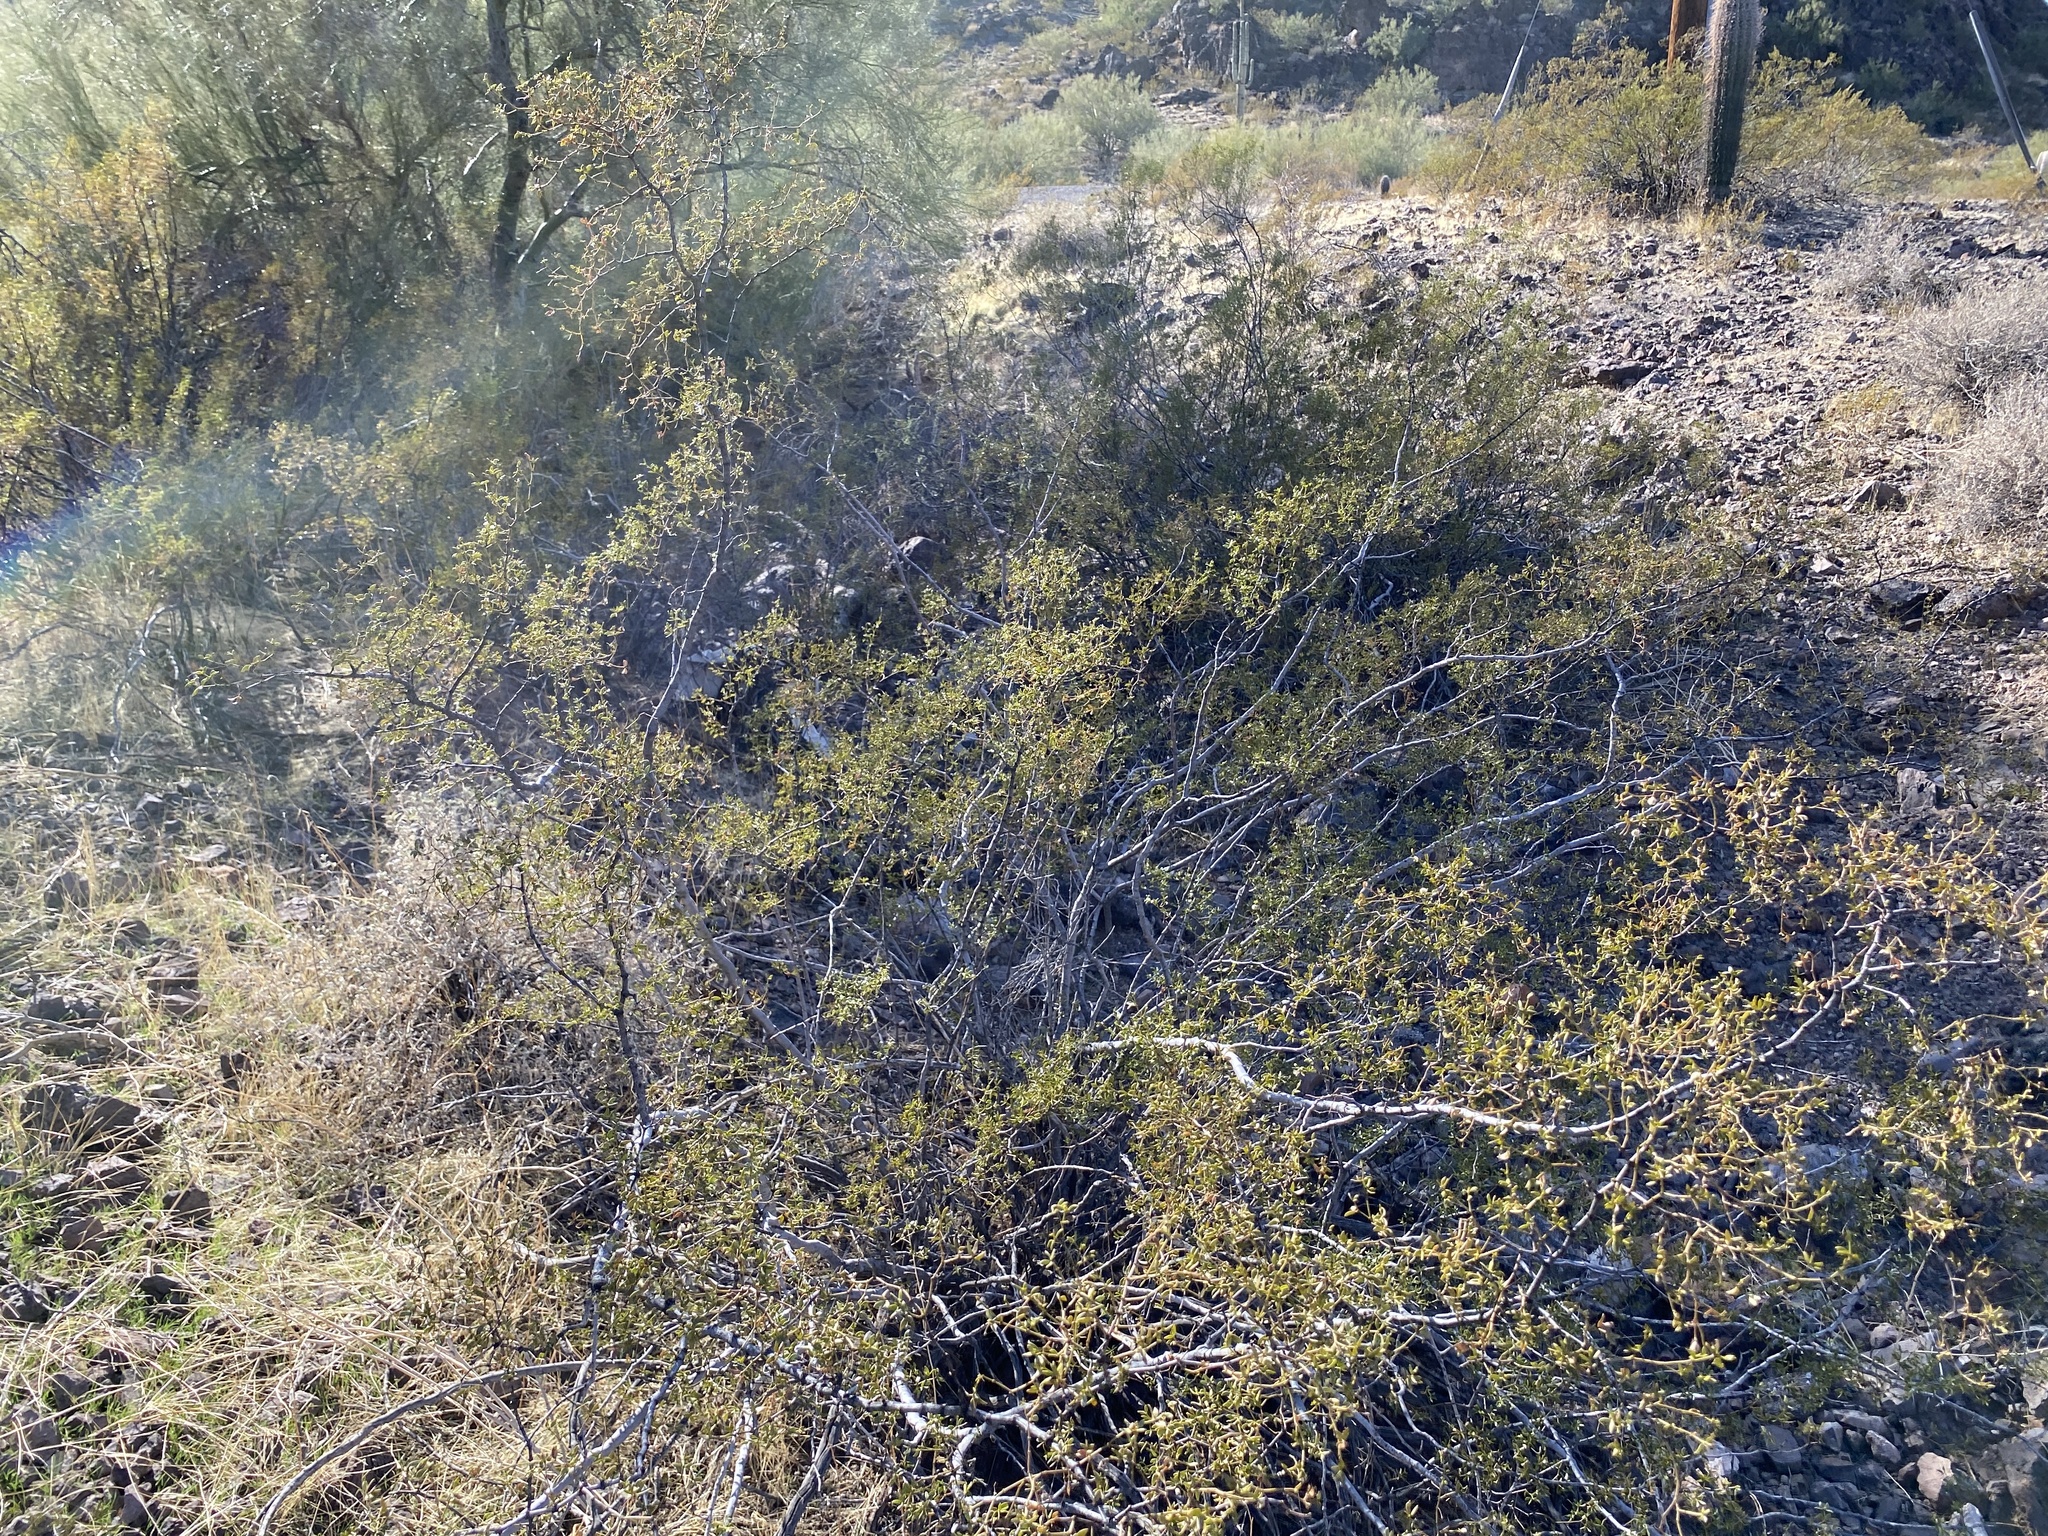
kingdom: Plantae
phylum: Tracheophyta
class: Magnoliopsida
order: Zygophyllales
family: Zygophyllaceae
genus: Larrea
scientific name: Larrea tridentata
